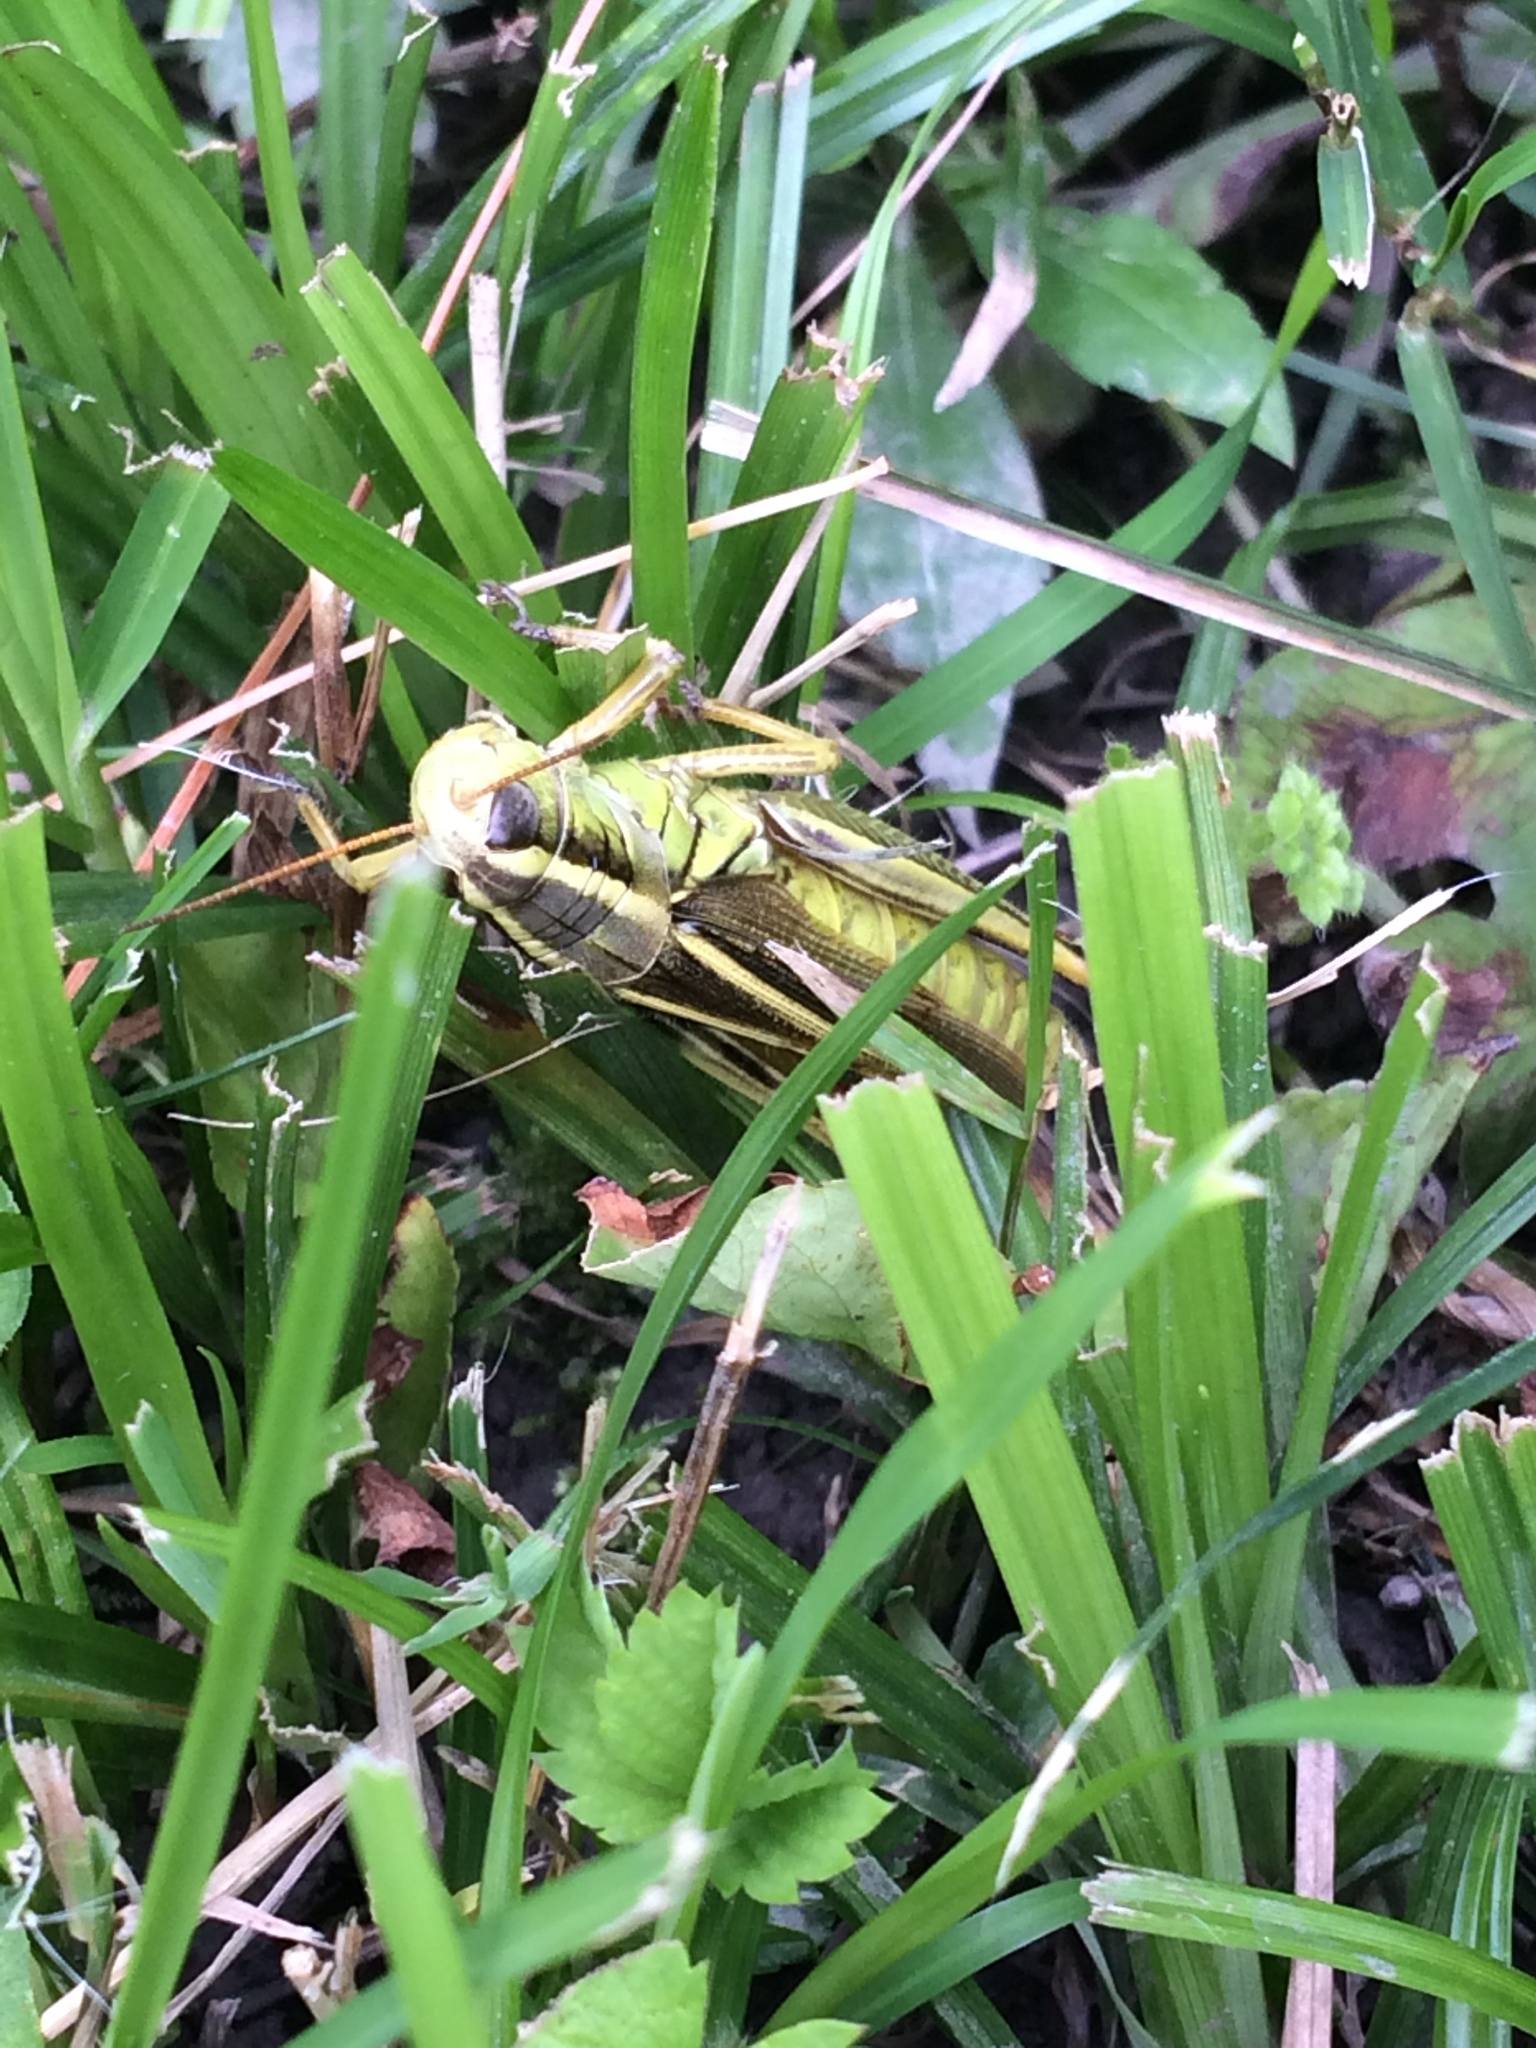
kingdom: Animalia
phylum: Arthropoda
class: Insecta
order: Orthoptera
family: Acrididae
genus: Melanoplus
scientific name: Melanoplus bivittatus
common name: Two-striped grasshopper
